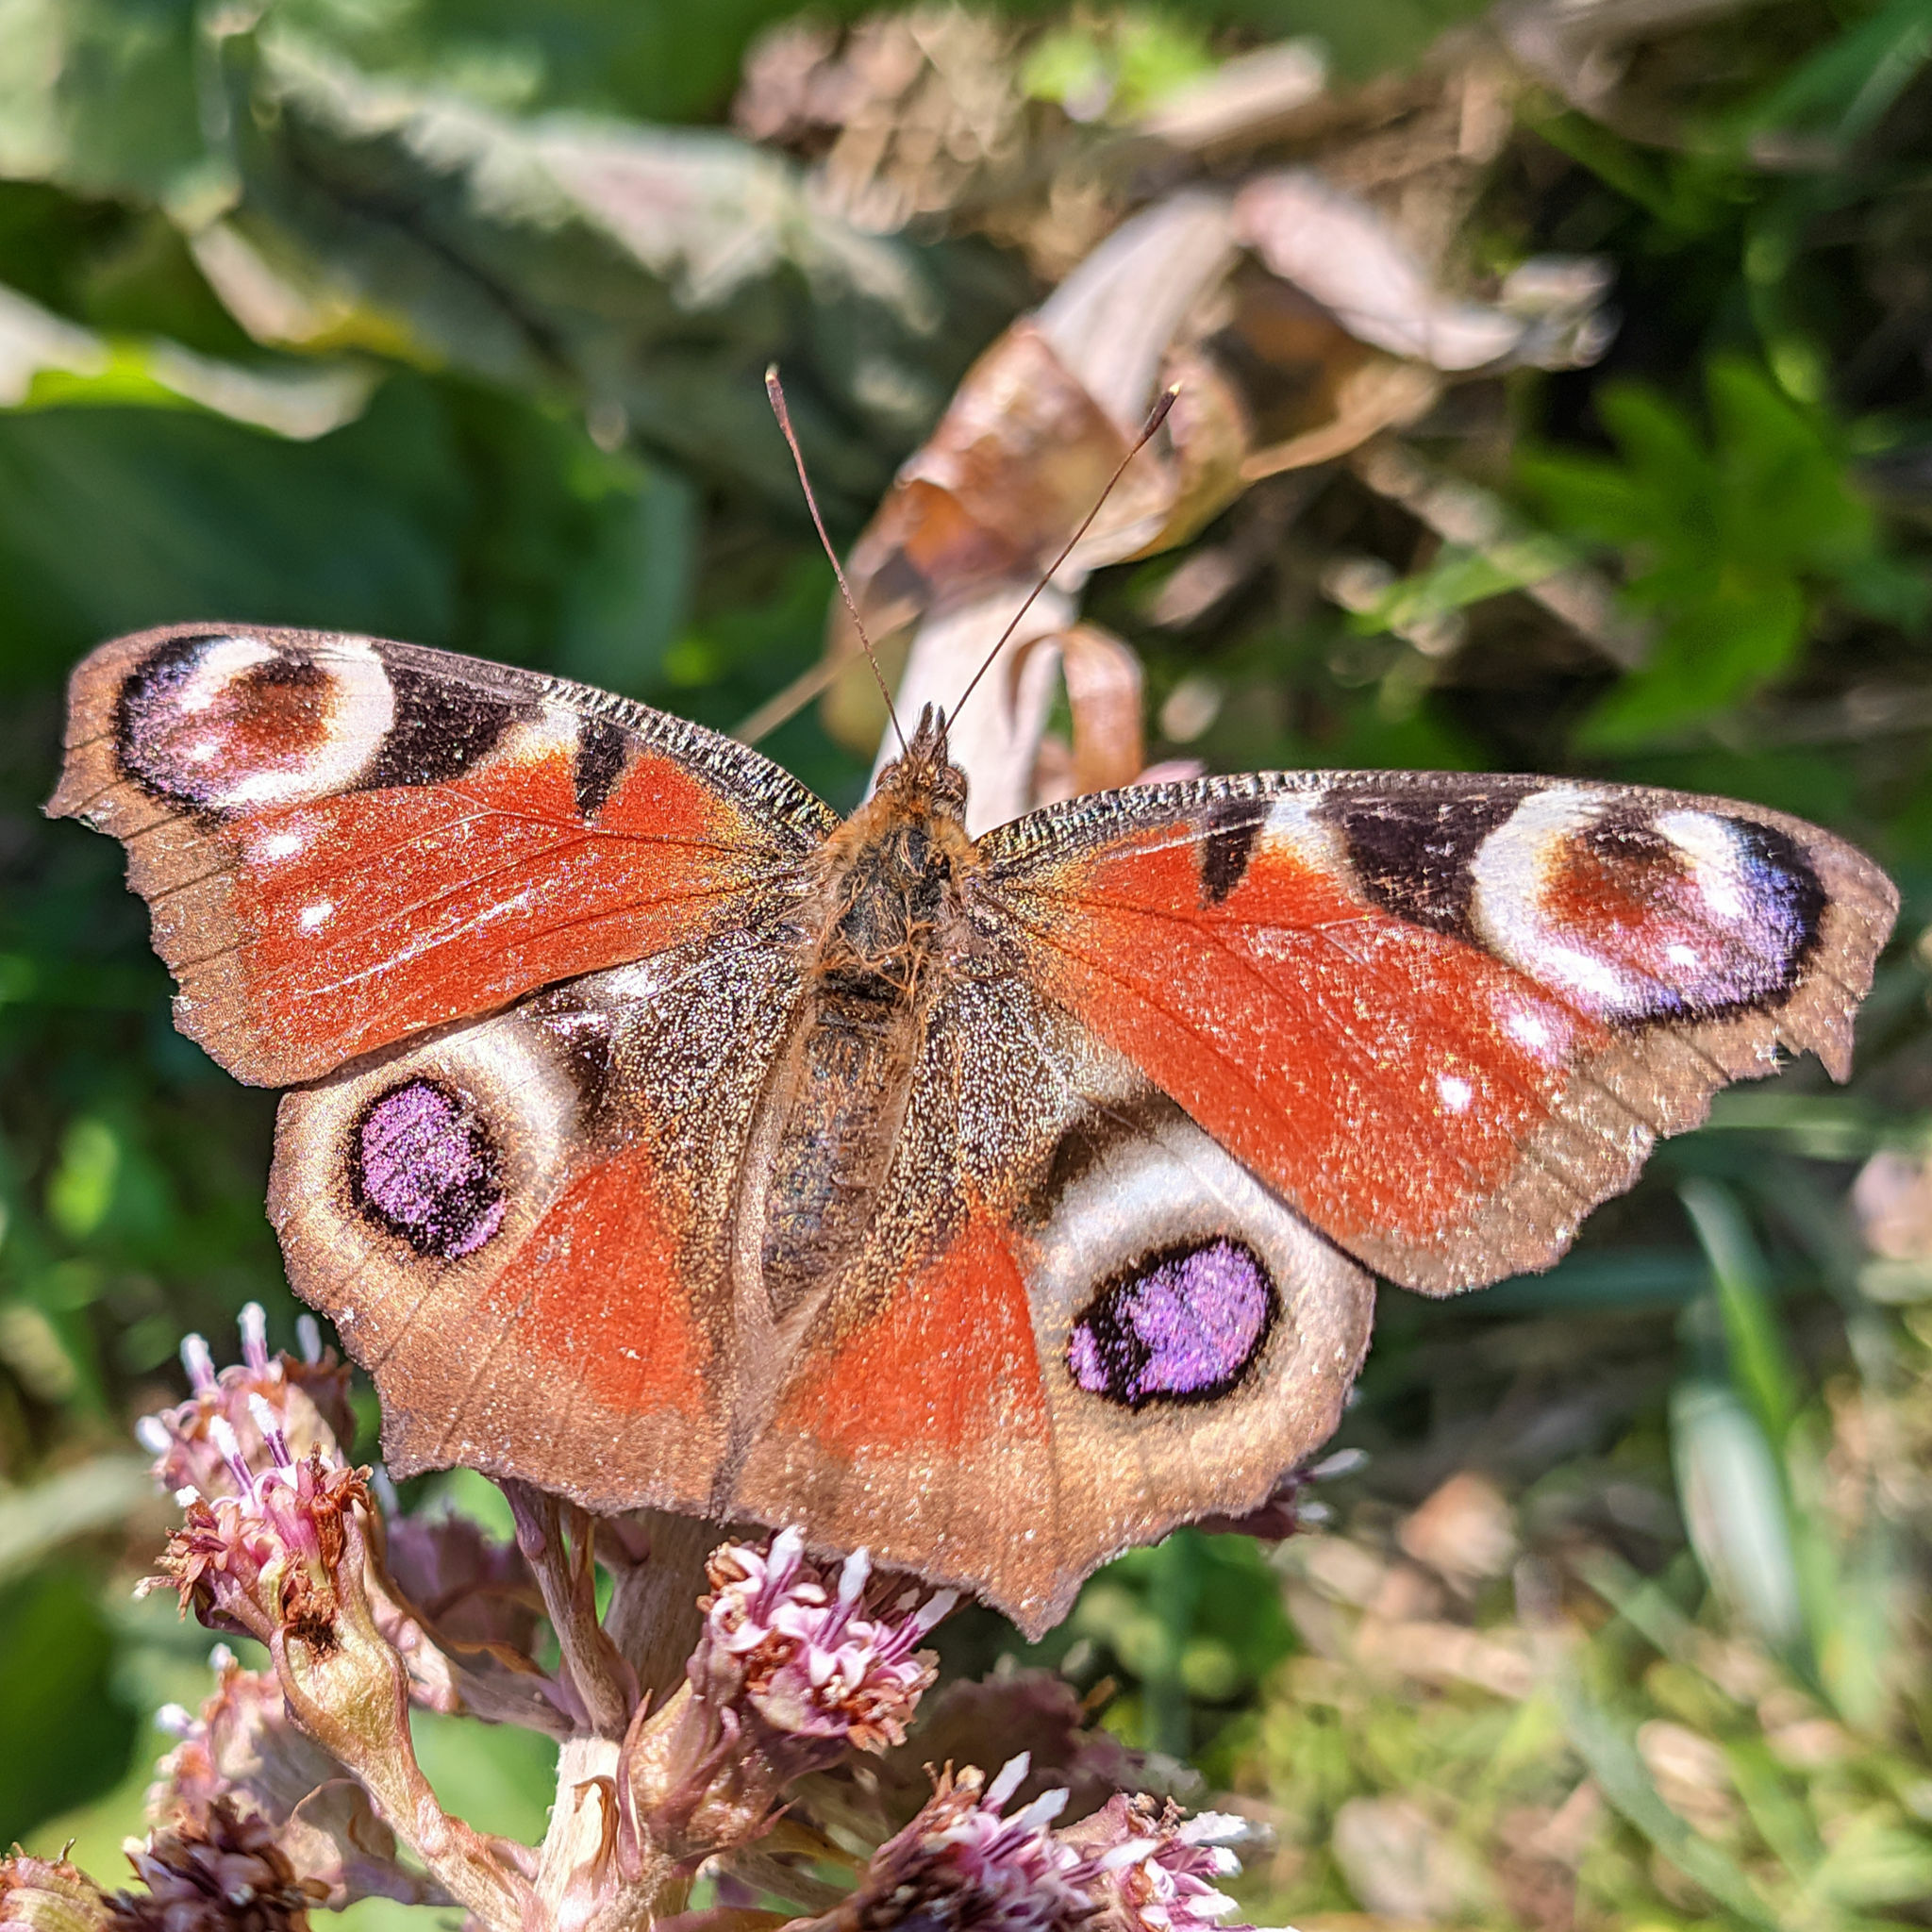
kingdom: Animalia
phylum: Arthropoda
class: Insecta
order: Lepidoptera
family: Nymphalidae
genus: Aglais
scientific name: Aglais io
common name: Peacock
